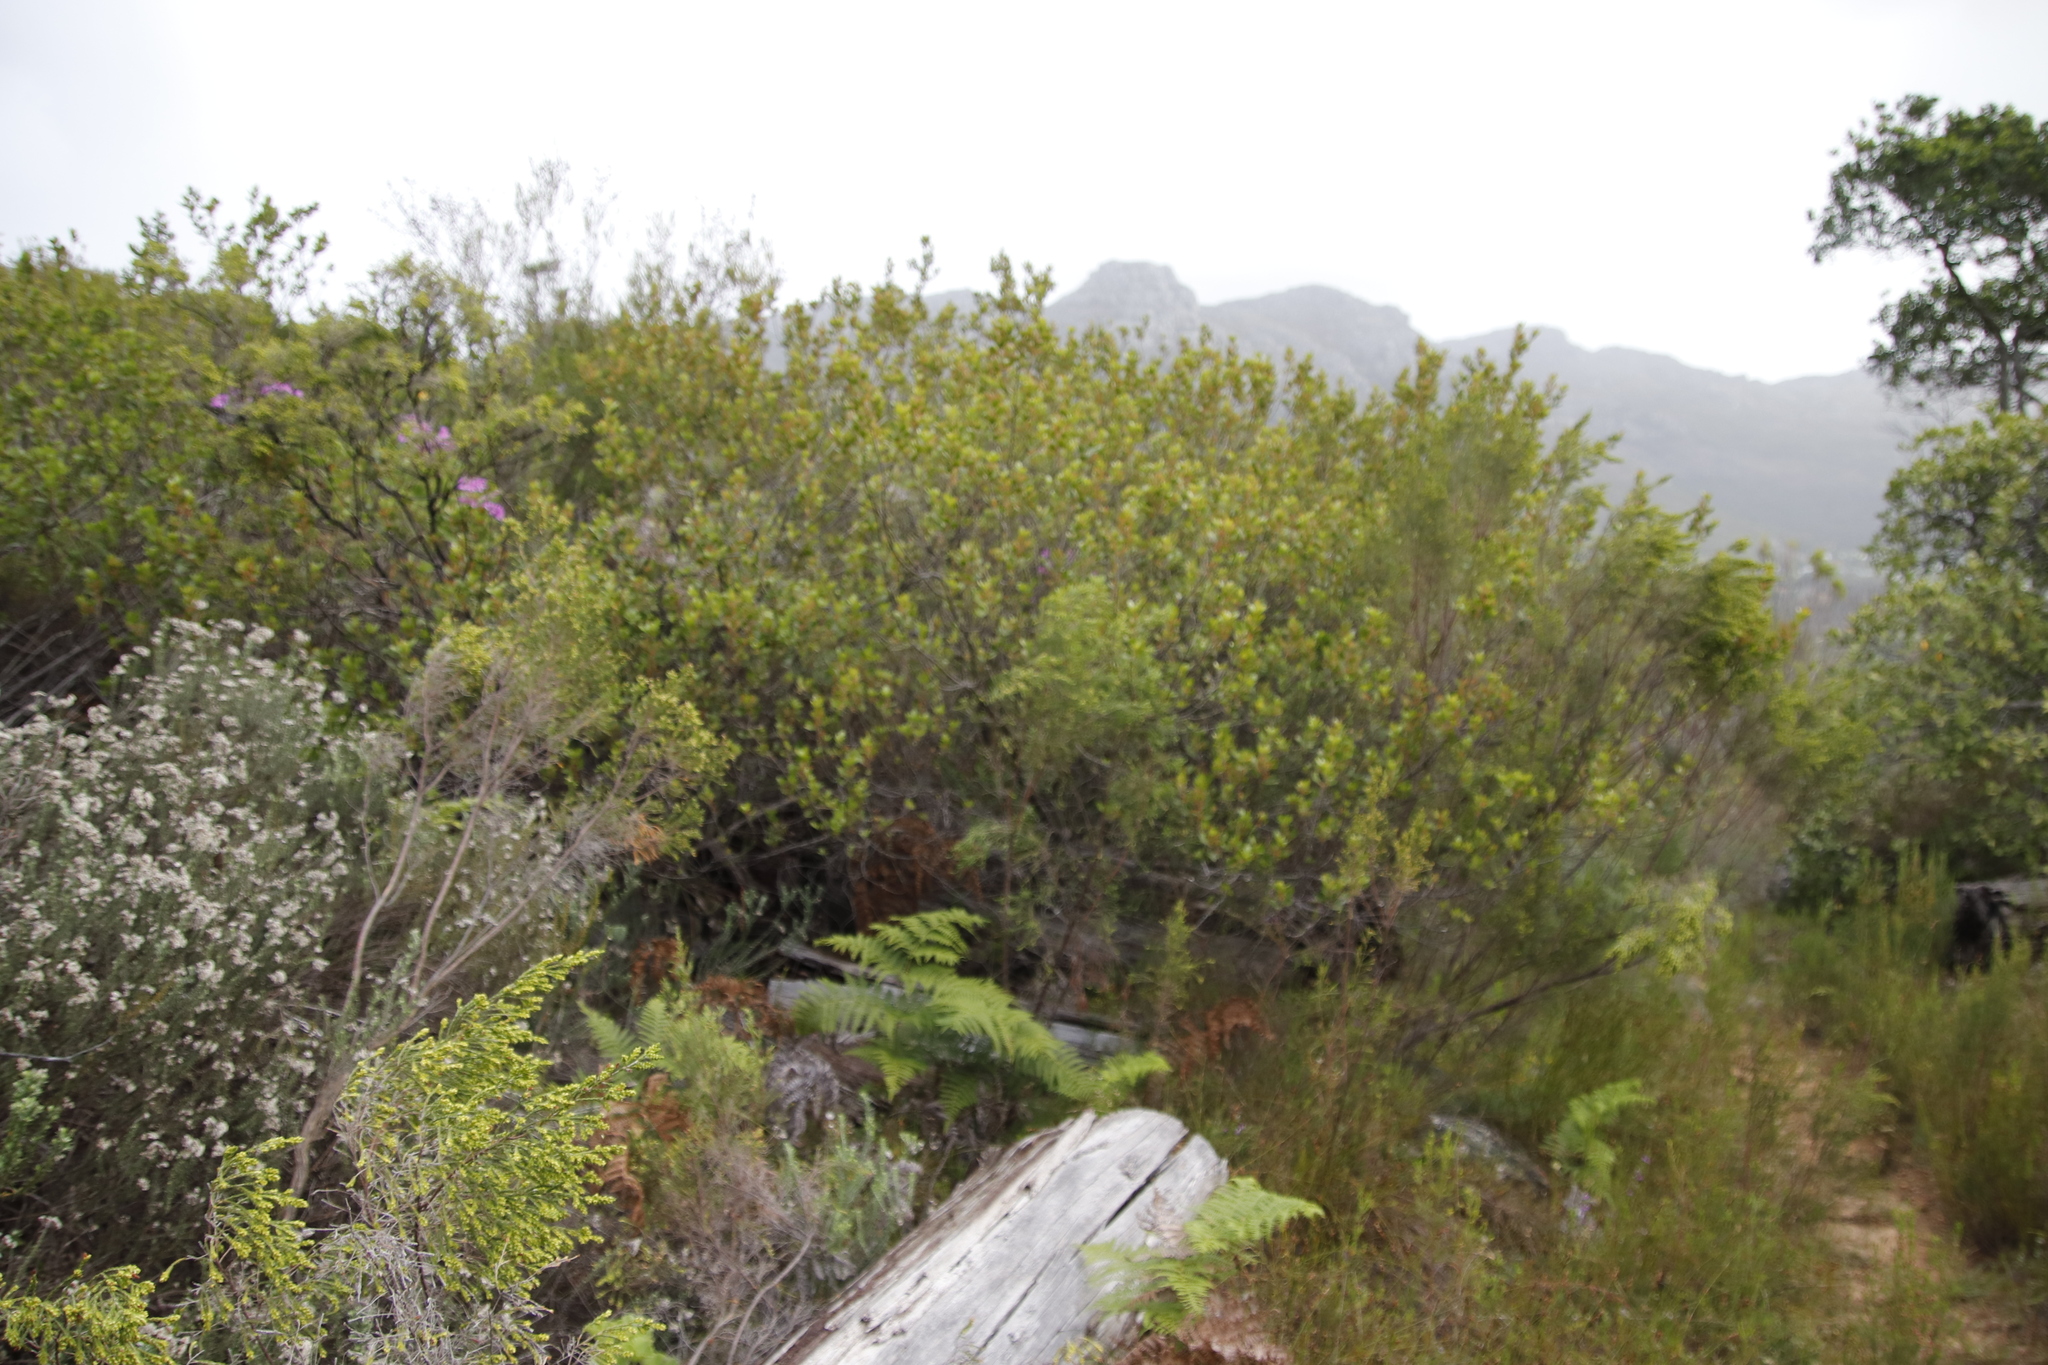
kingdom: Plantae
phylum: Tracheophyta
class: Magnoliopsida
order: Sapindales
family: Anacardiaceae
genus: Searsia
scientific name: Searsia lucida
